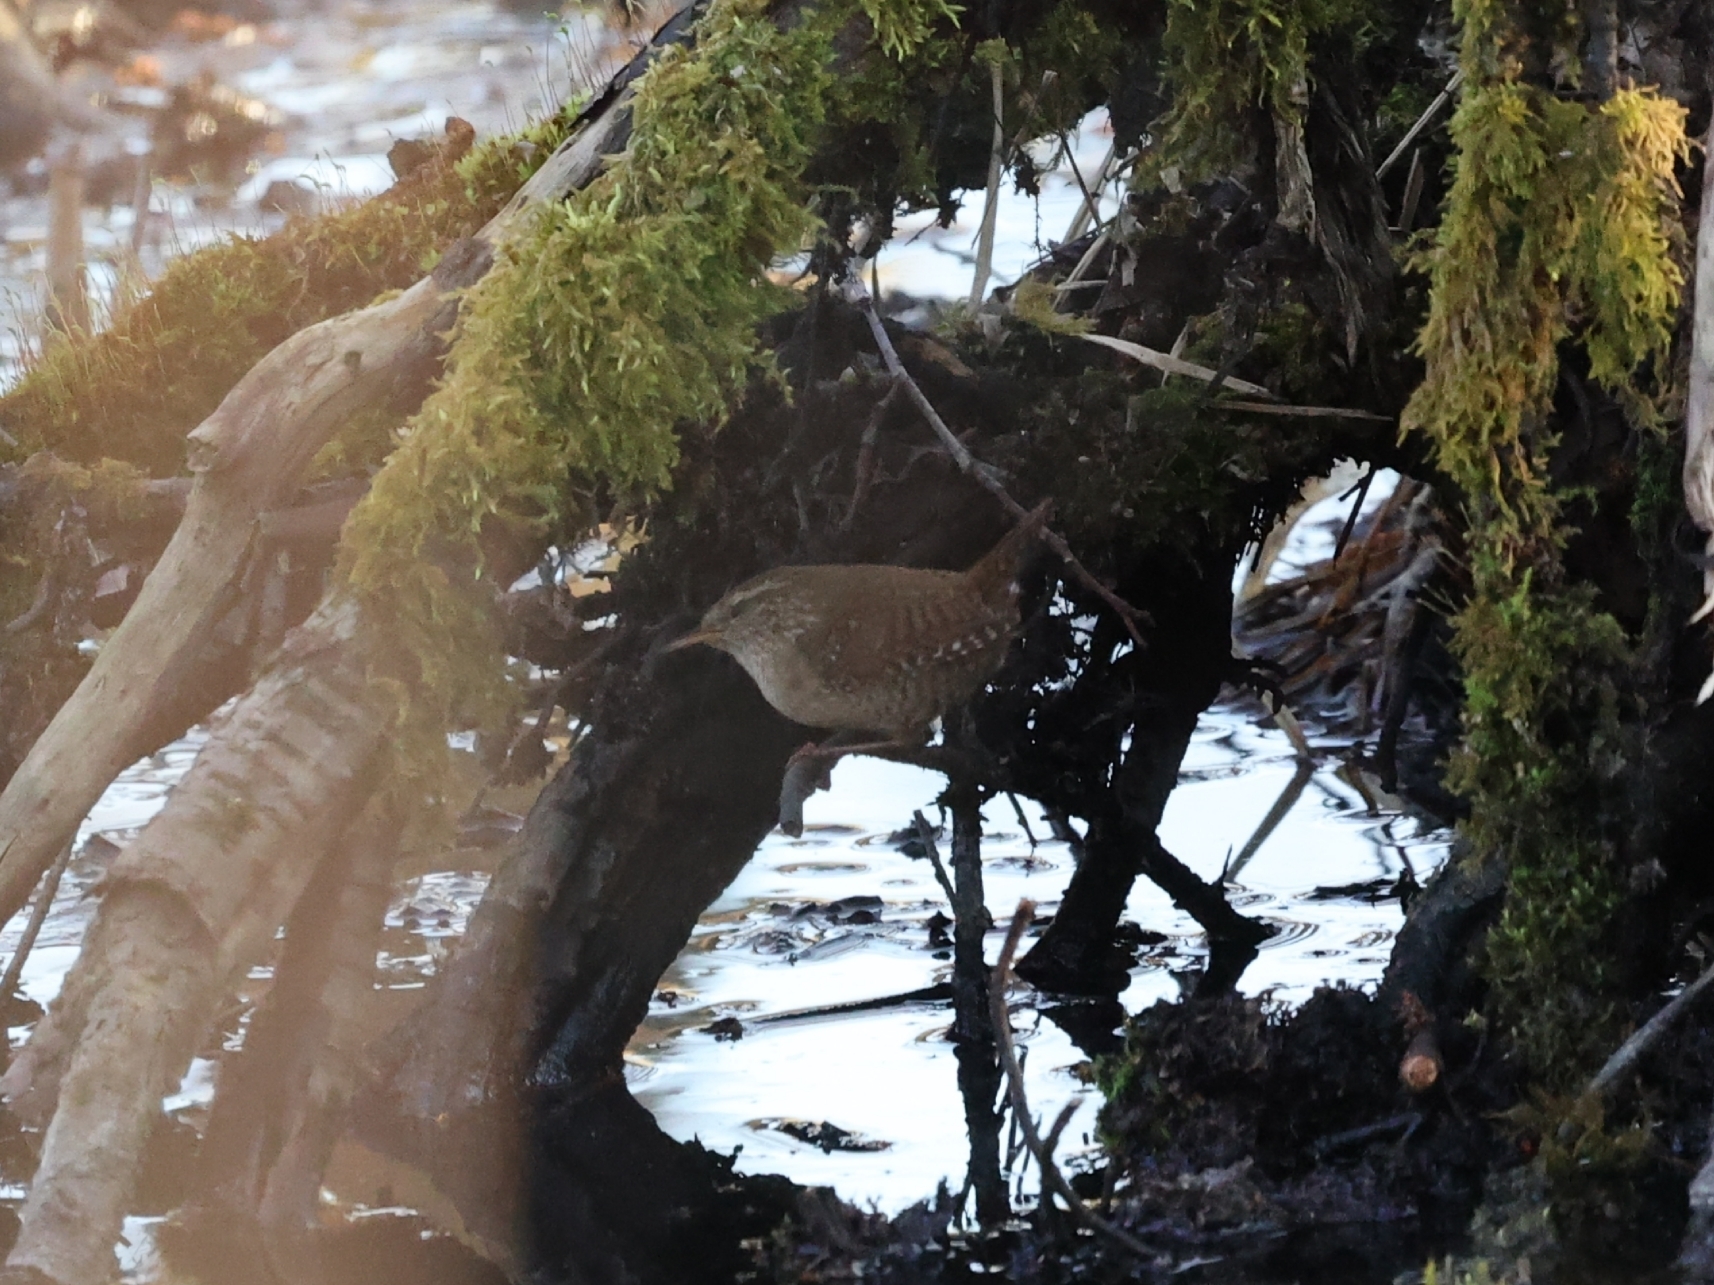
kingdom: Animalia
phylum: Chordata
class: Aves
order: Passeriformes
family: Troglodytidae
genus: Troglodytes
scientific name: Troglodytes troglodytes
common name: Eurasian wren
